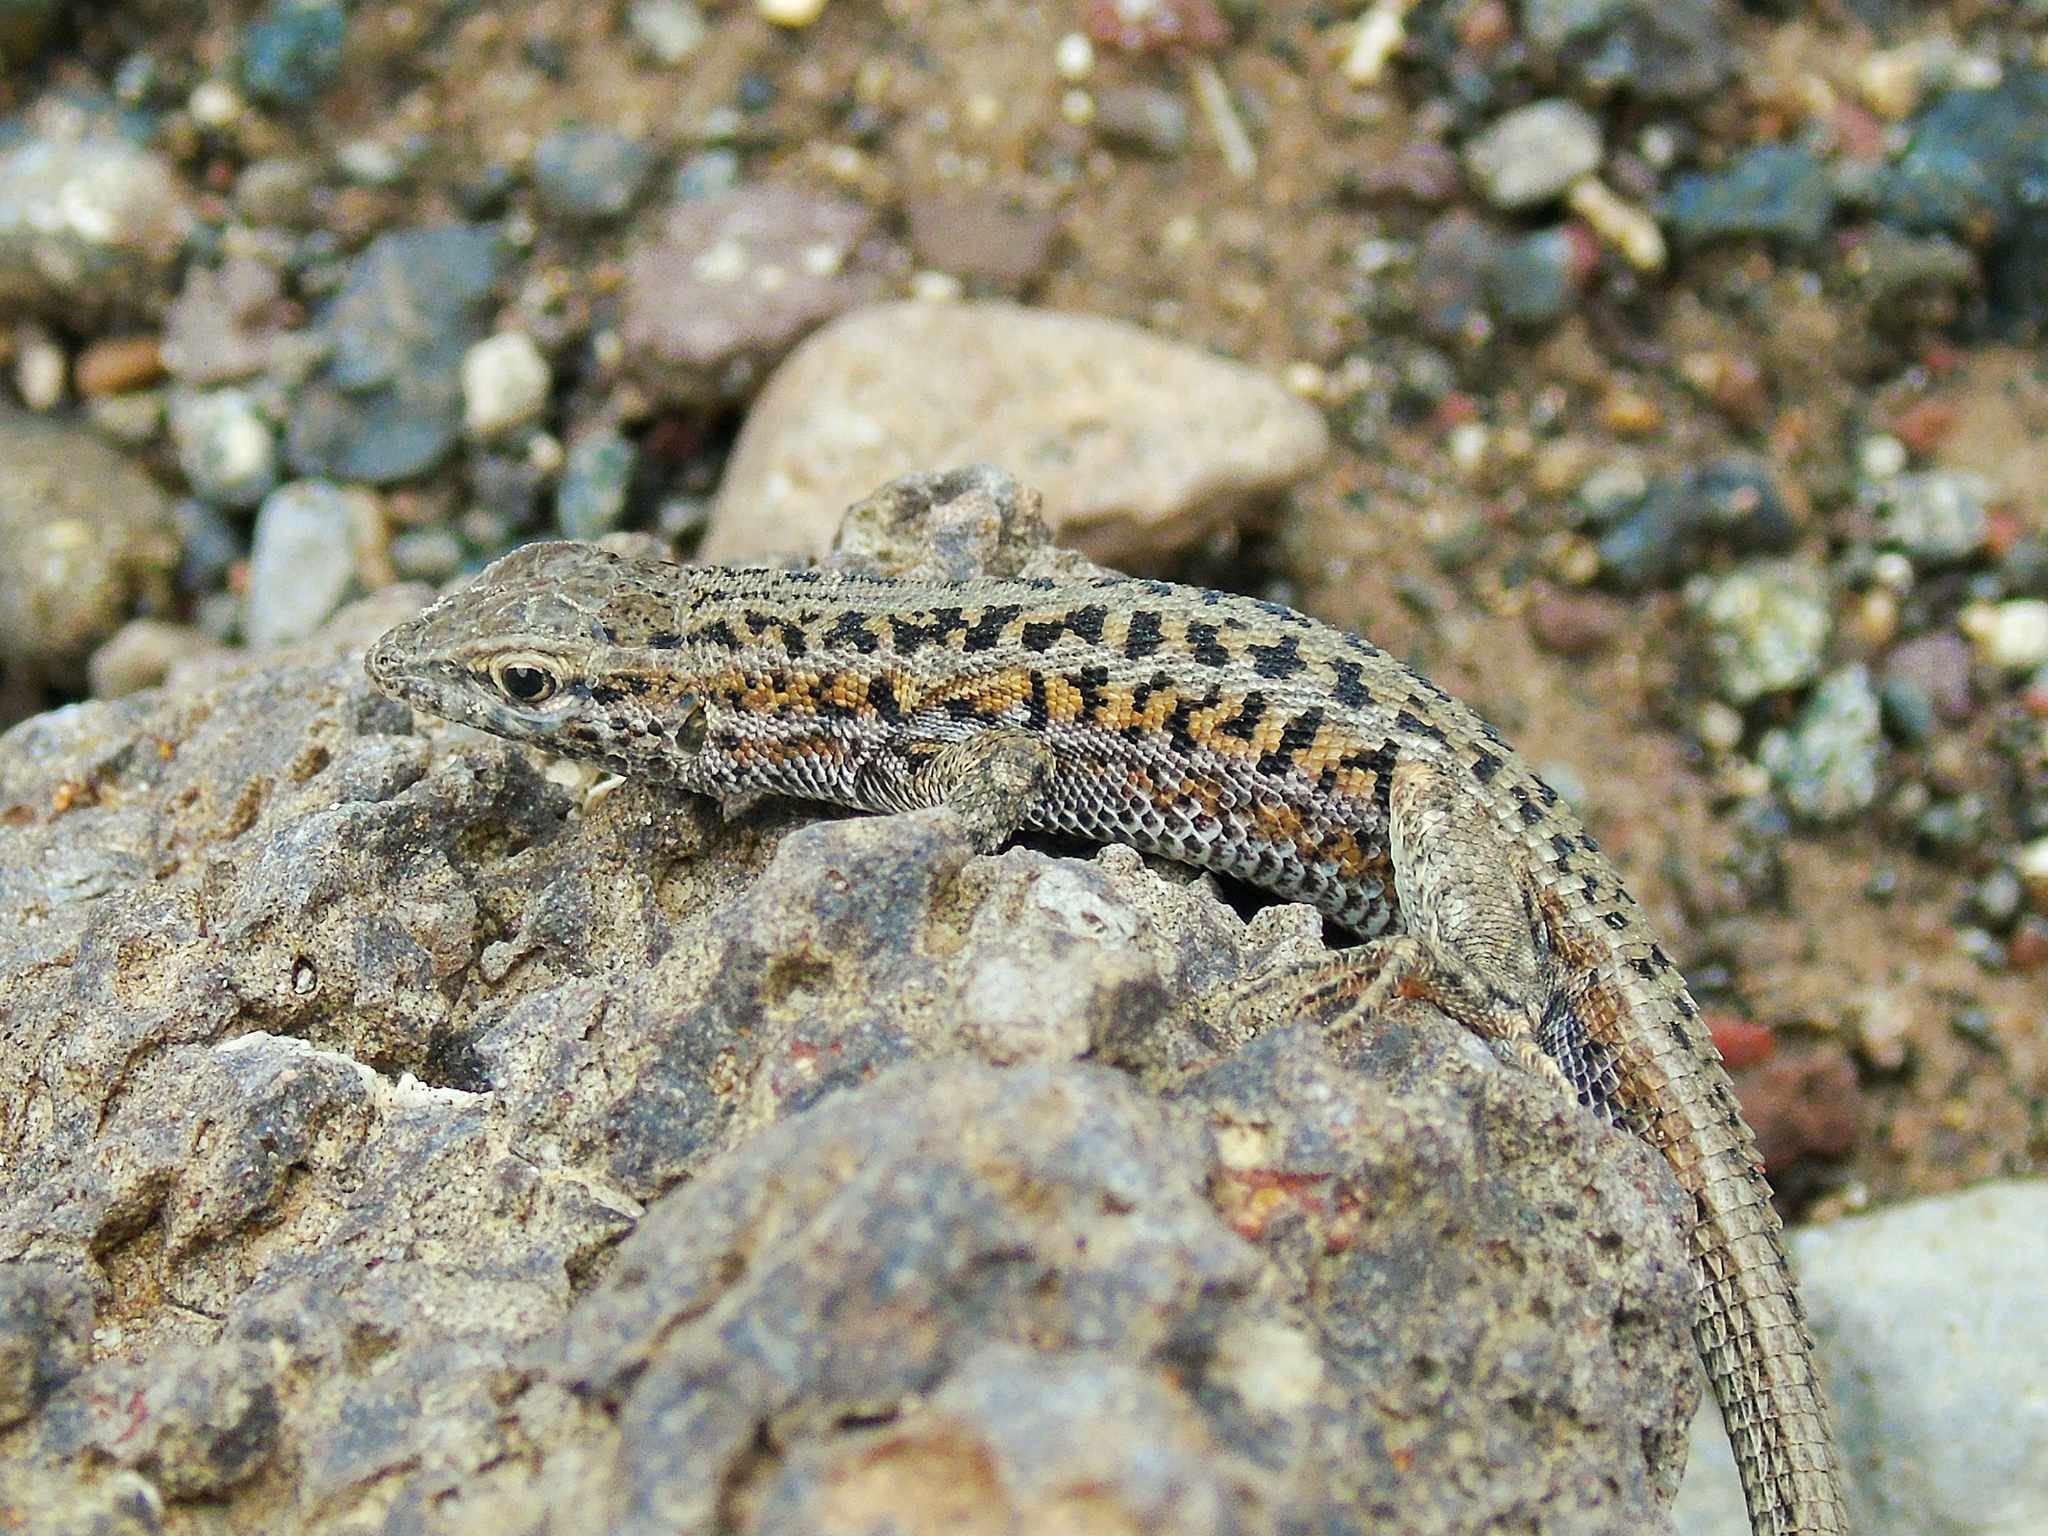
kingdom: Animalia
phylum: Chordata
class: Squamata
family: Lacertidae
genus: Ophisops
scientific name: Ophisops elegans
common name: Snake-eyed lizard
